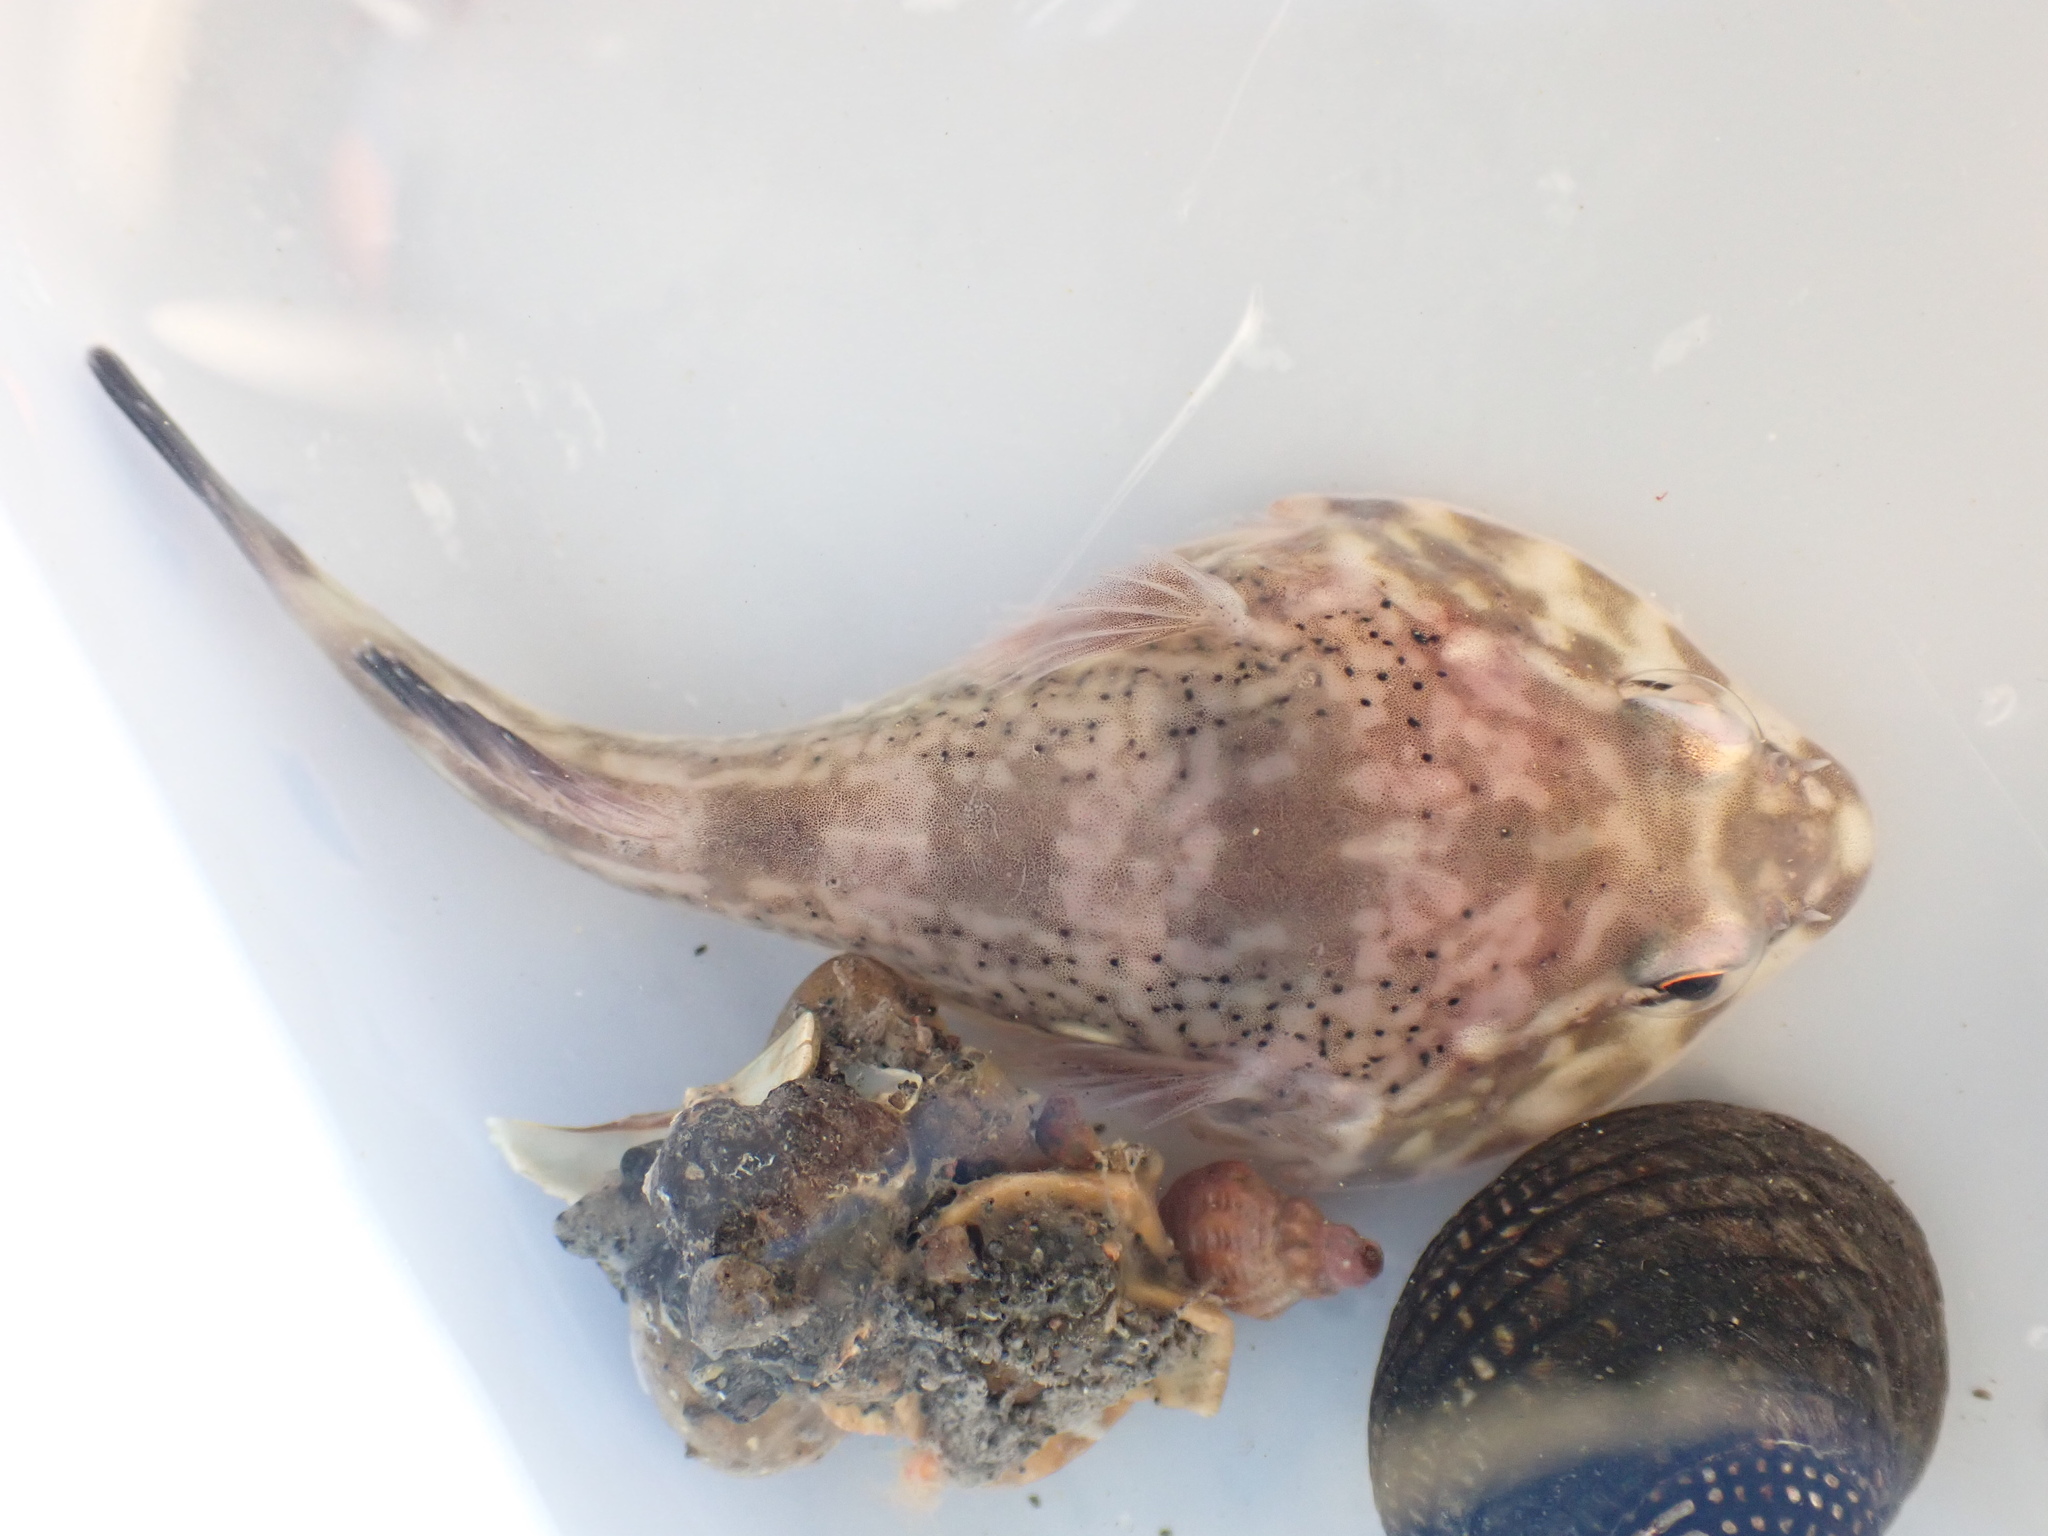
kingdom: Animalia
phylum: Chordata
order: Gobiesociformes
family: Gobiesocidae
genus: Diplocrepis
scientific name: Diplocrepis puniceus
